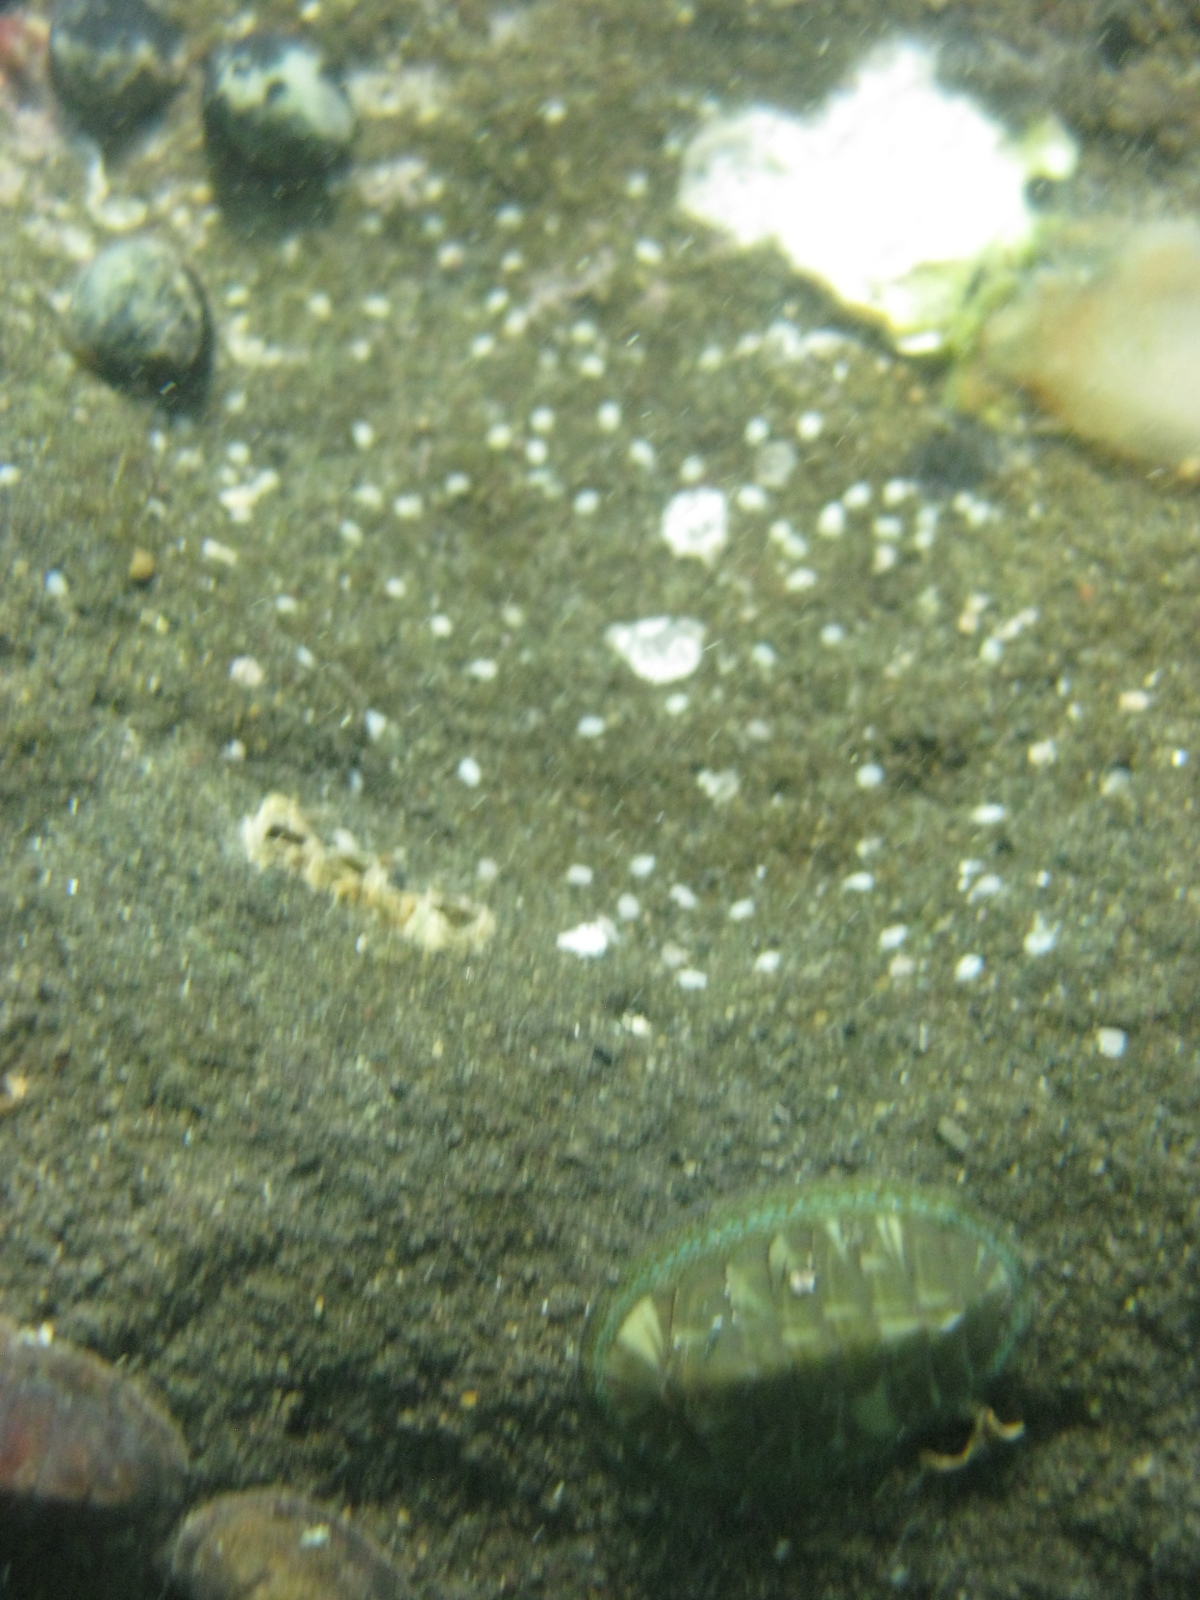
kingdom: Animalia
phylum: Mollusca
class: Polyplacophora
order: Chitonida
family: Chitonidae
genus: Chiton
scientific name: Chiton glaucus
